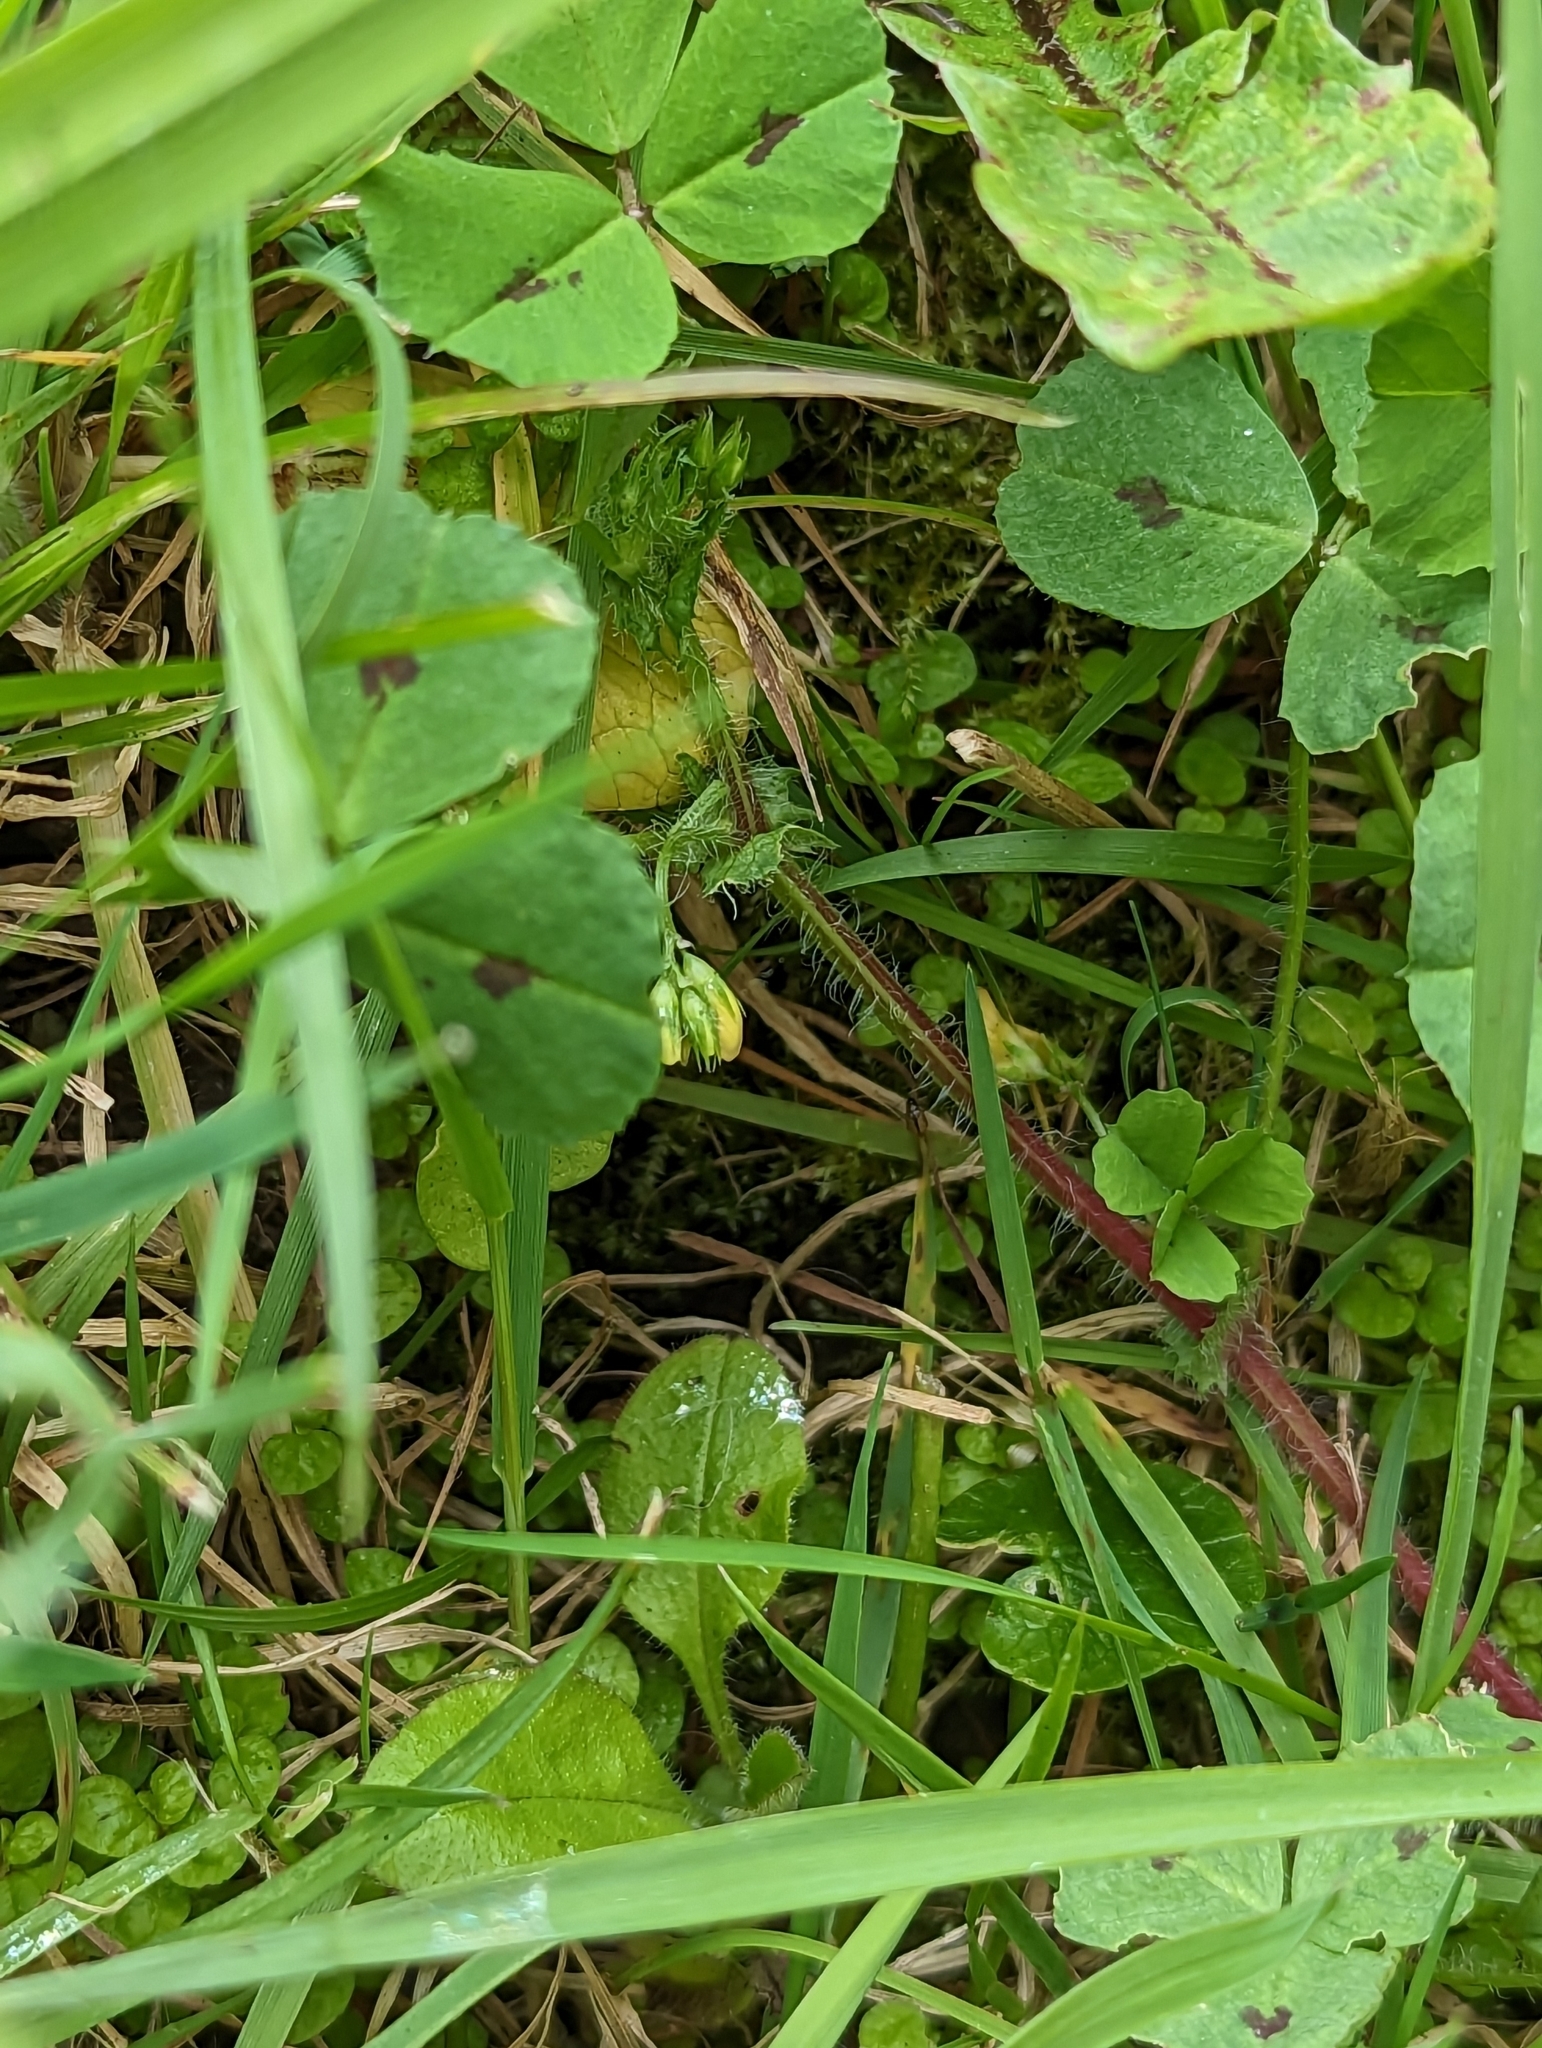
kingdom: Plantae
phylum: Tracheophyta
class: Magnoliopsida
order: Fabales
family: Fabaceae
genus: Medicago
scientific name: Medicago arabica
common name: Spotted medick
